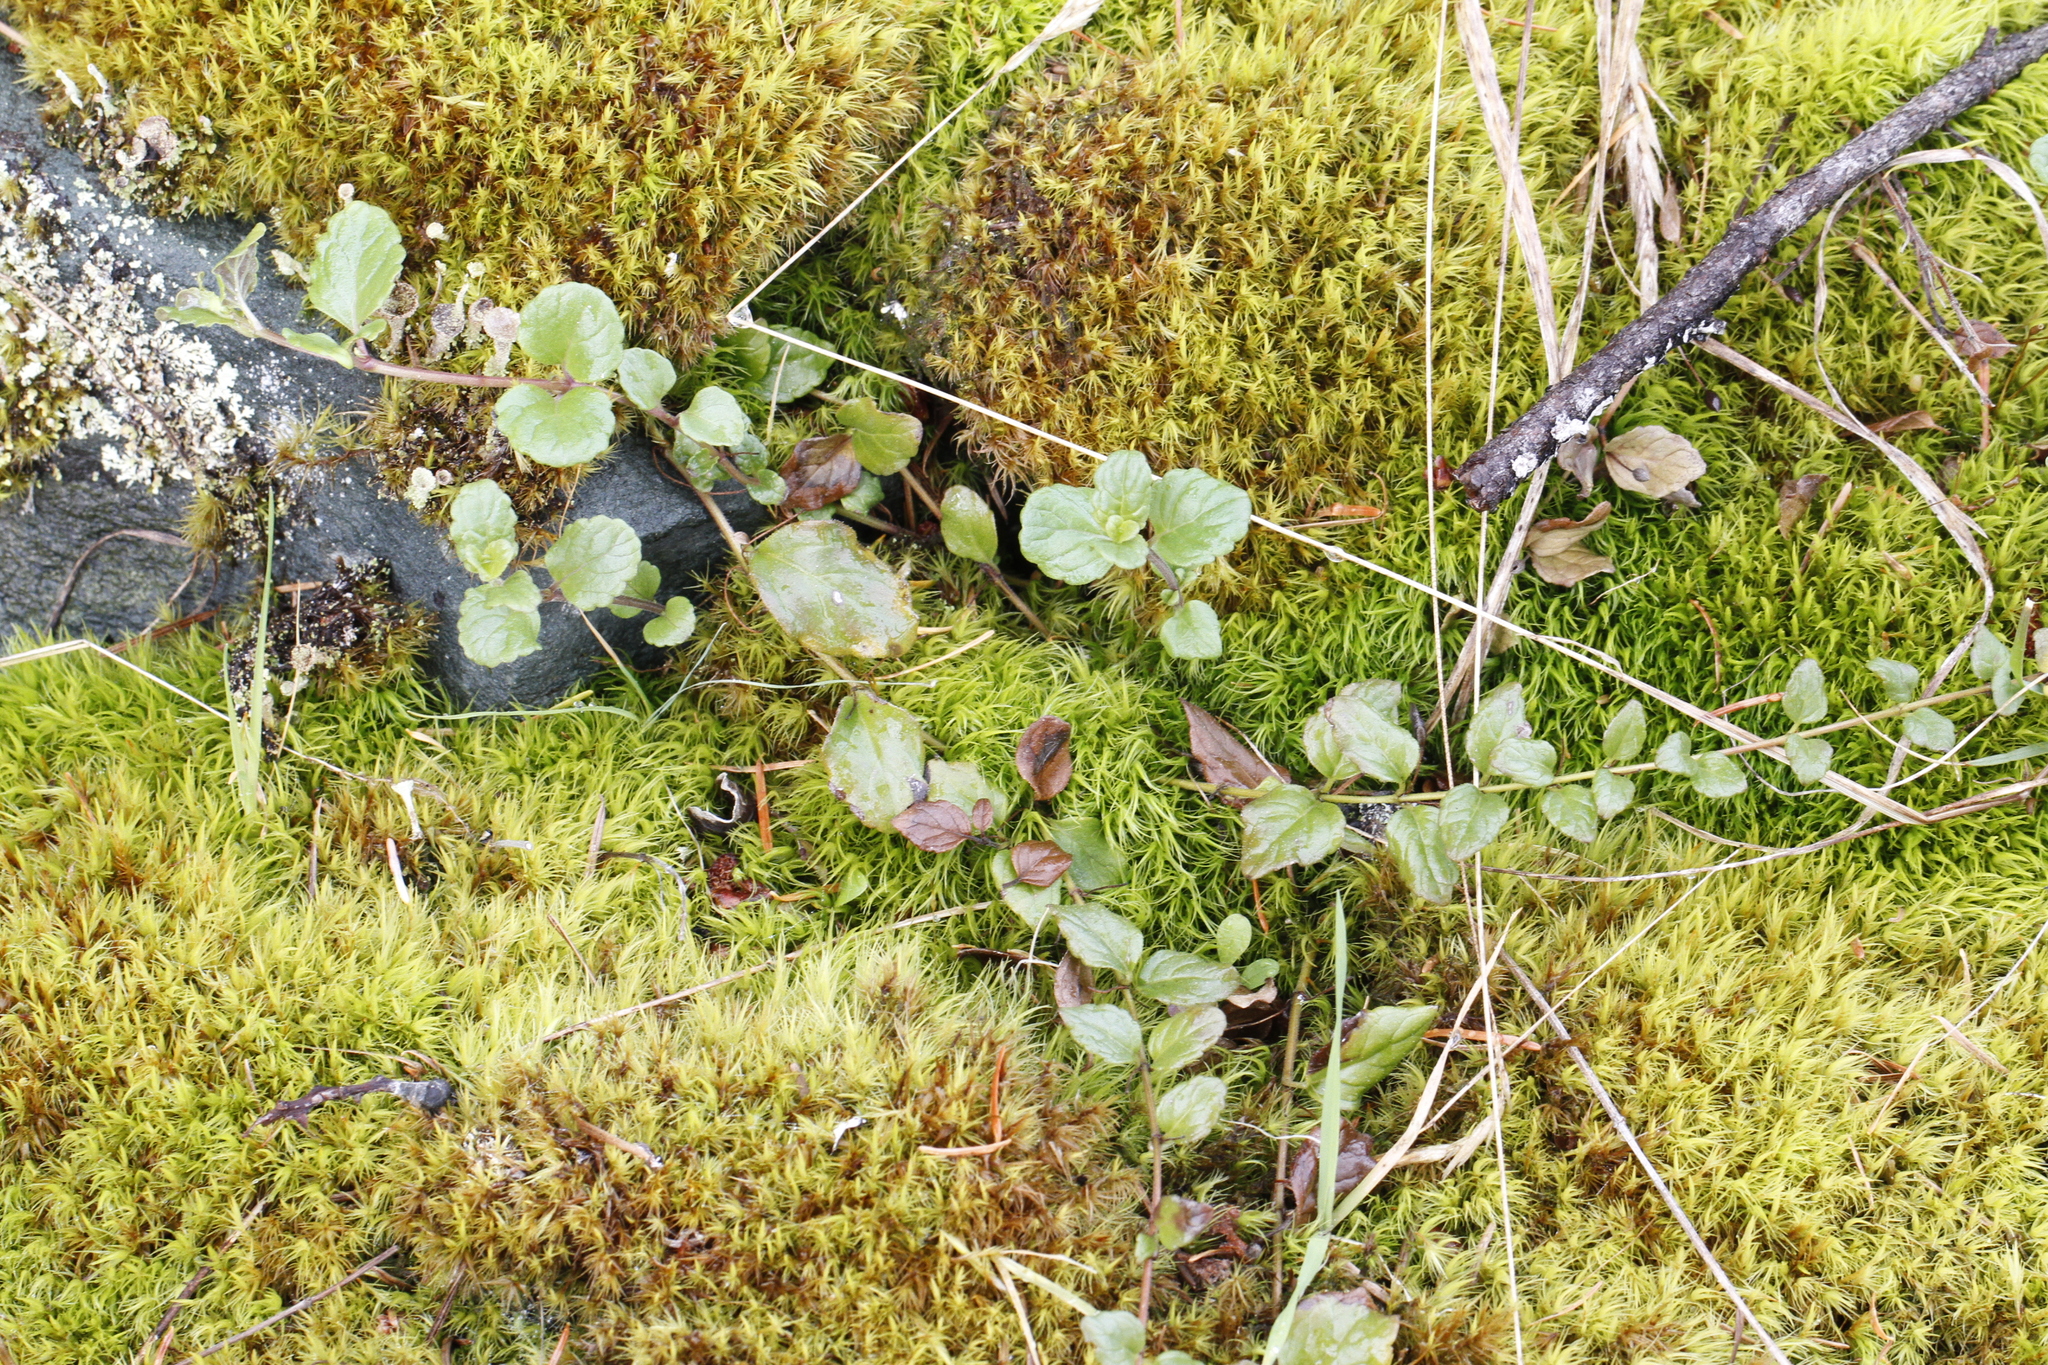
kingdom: Plantae
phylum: Tracheophyta
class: Magnoliopsida
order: Lamiales
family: Lamiaceae
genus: Micromeria
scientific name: Micromeria douglasii
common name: Yerba buena
